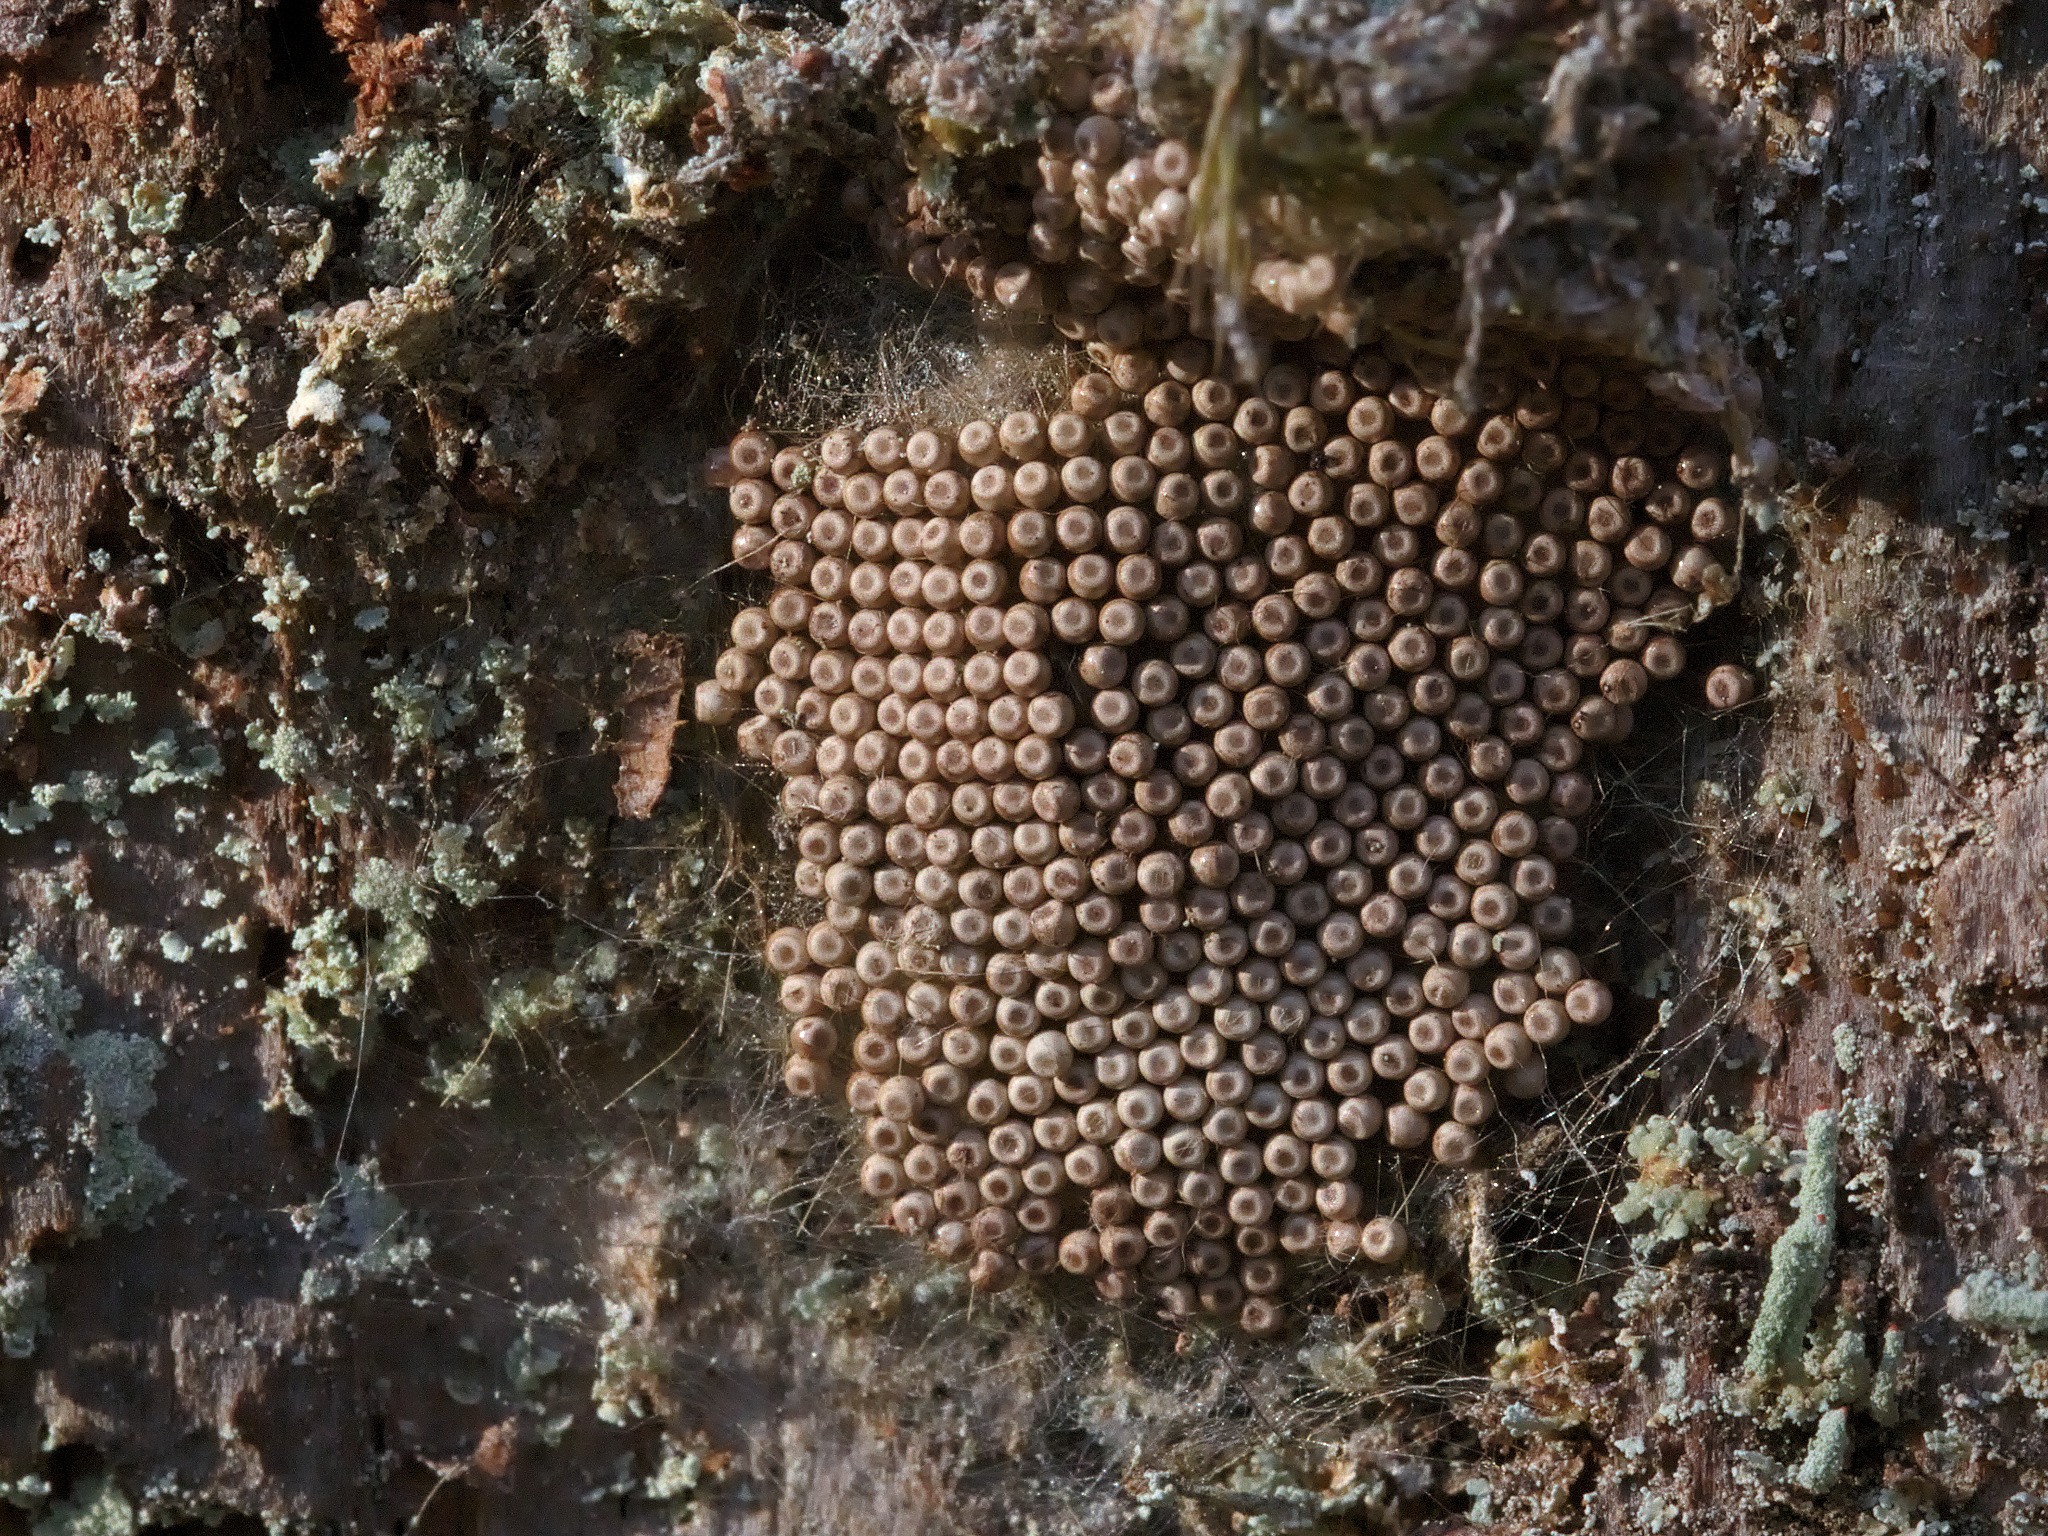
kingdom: Animalia
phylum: Arthropoda
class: Insecta
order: Lepidoptera
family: Erebidae
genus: Orgyia
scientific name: Orgyia antiqua
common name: Vapourer
